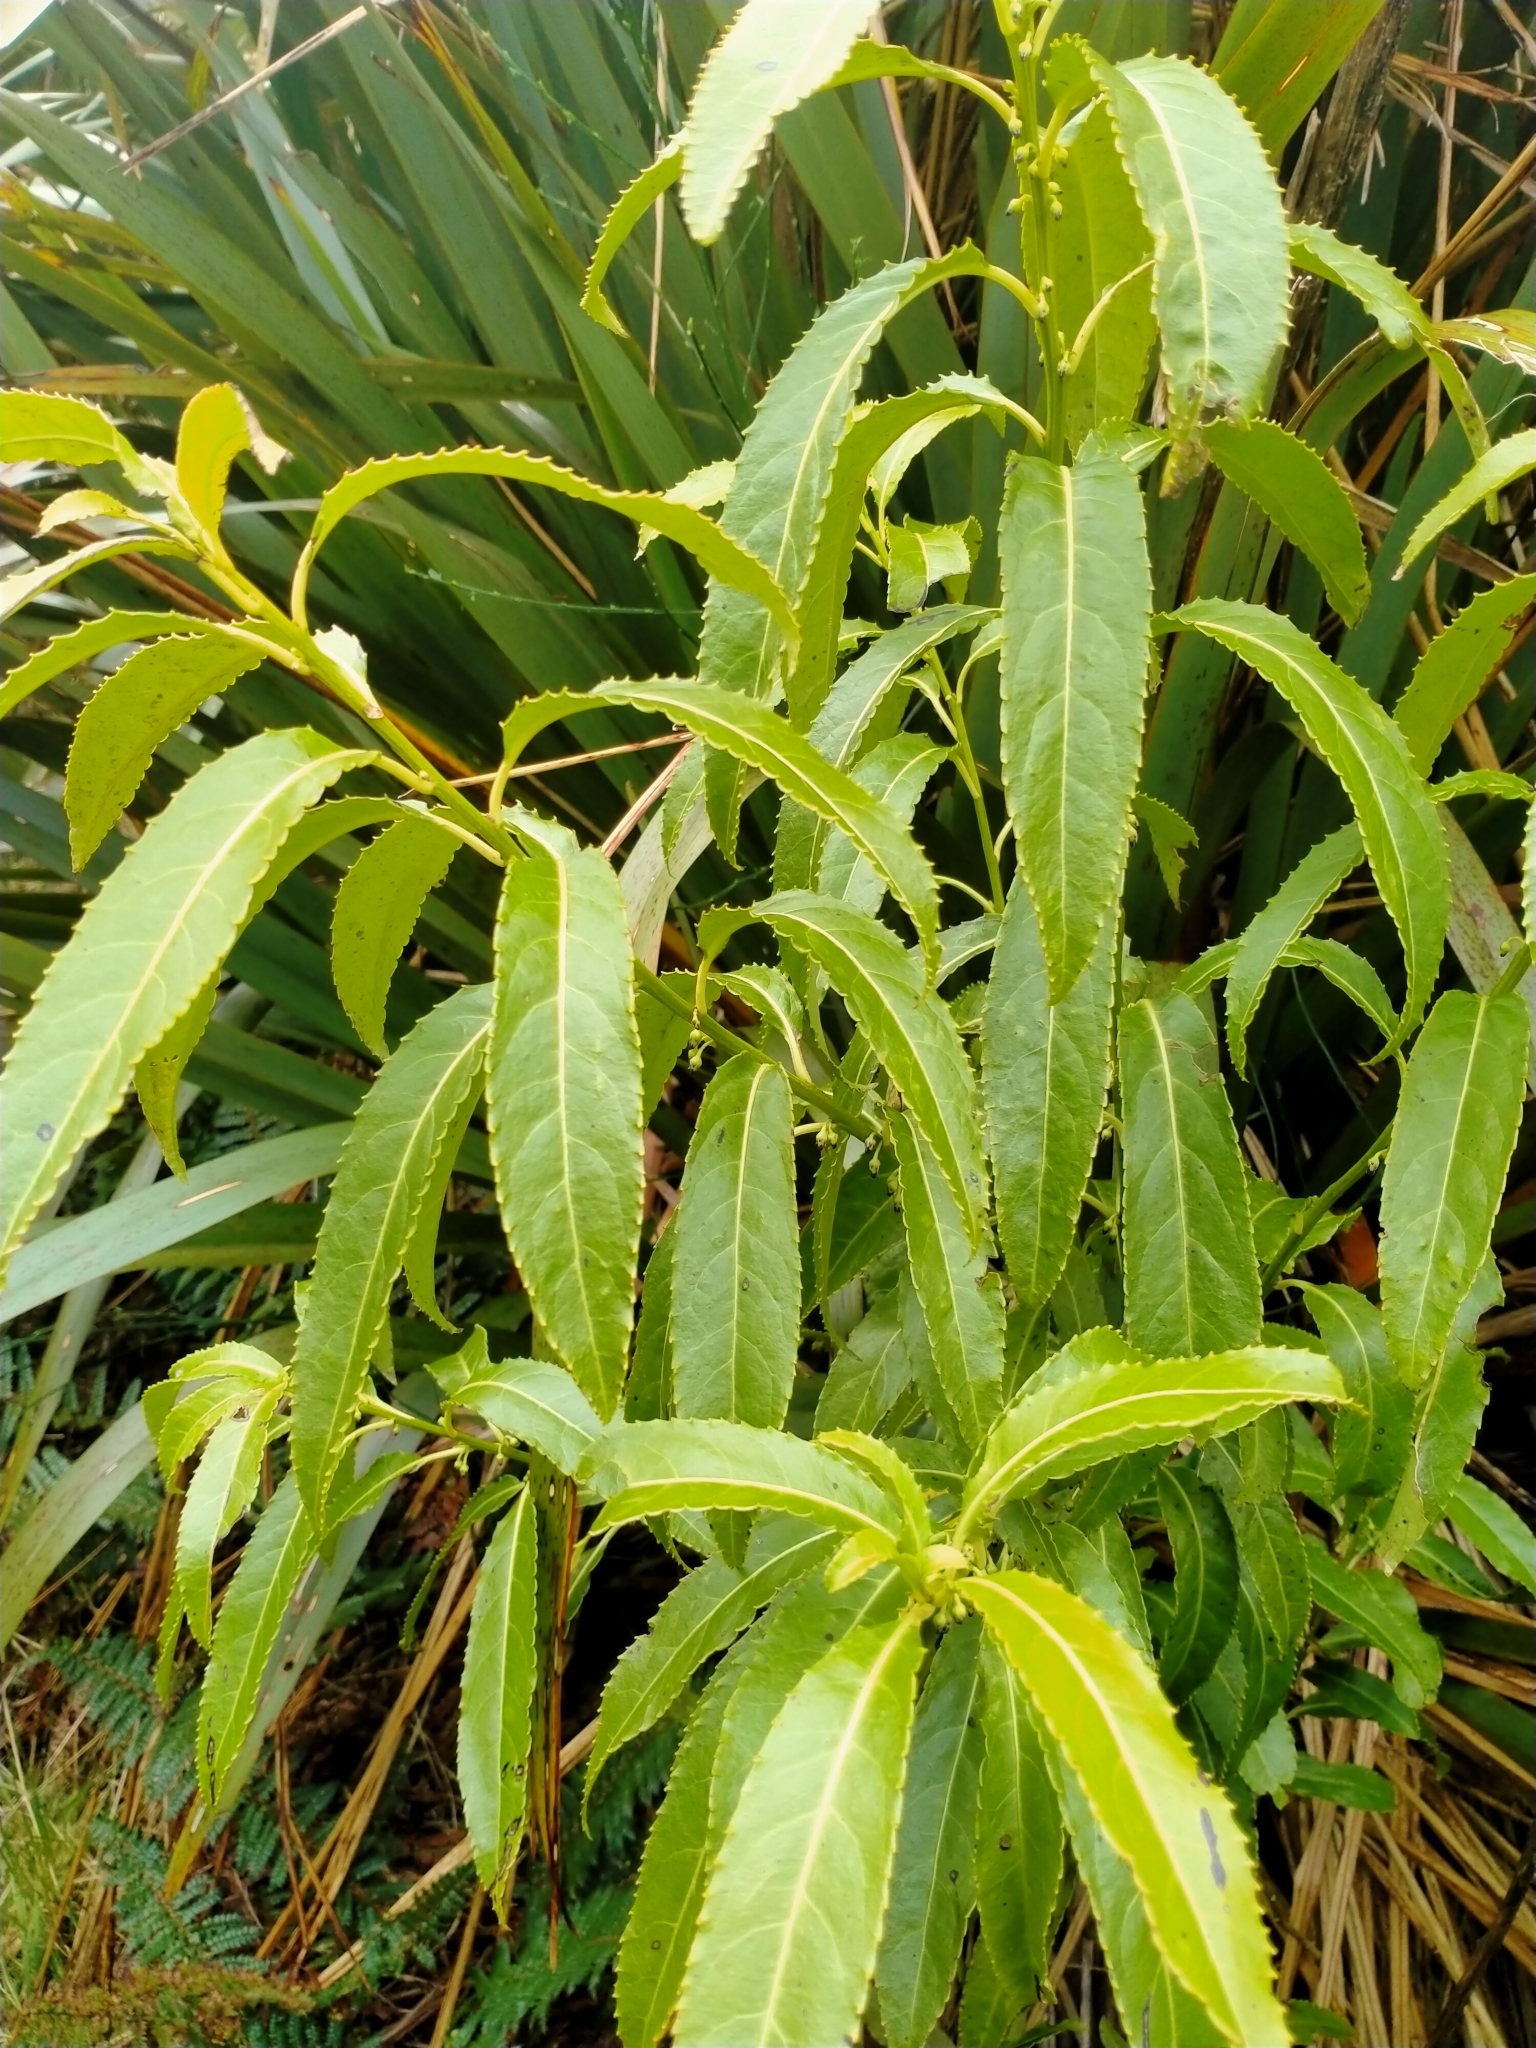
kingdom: Plantae
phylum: Tracheophyta
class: Magnoliopsida
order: Malpighiales
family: Violaceae
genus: Melicytus
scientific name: Melicytus lanceolatus
